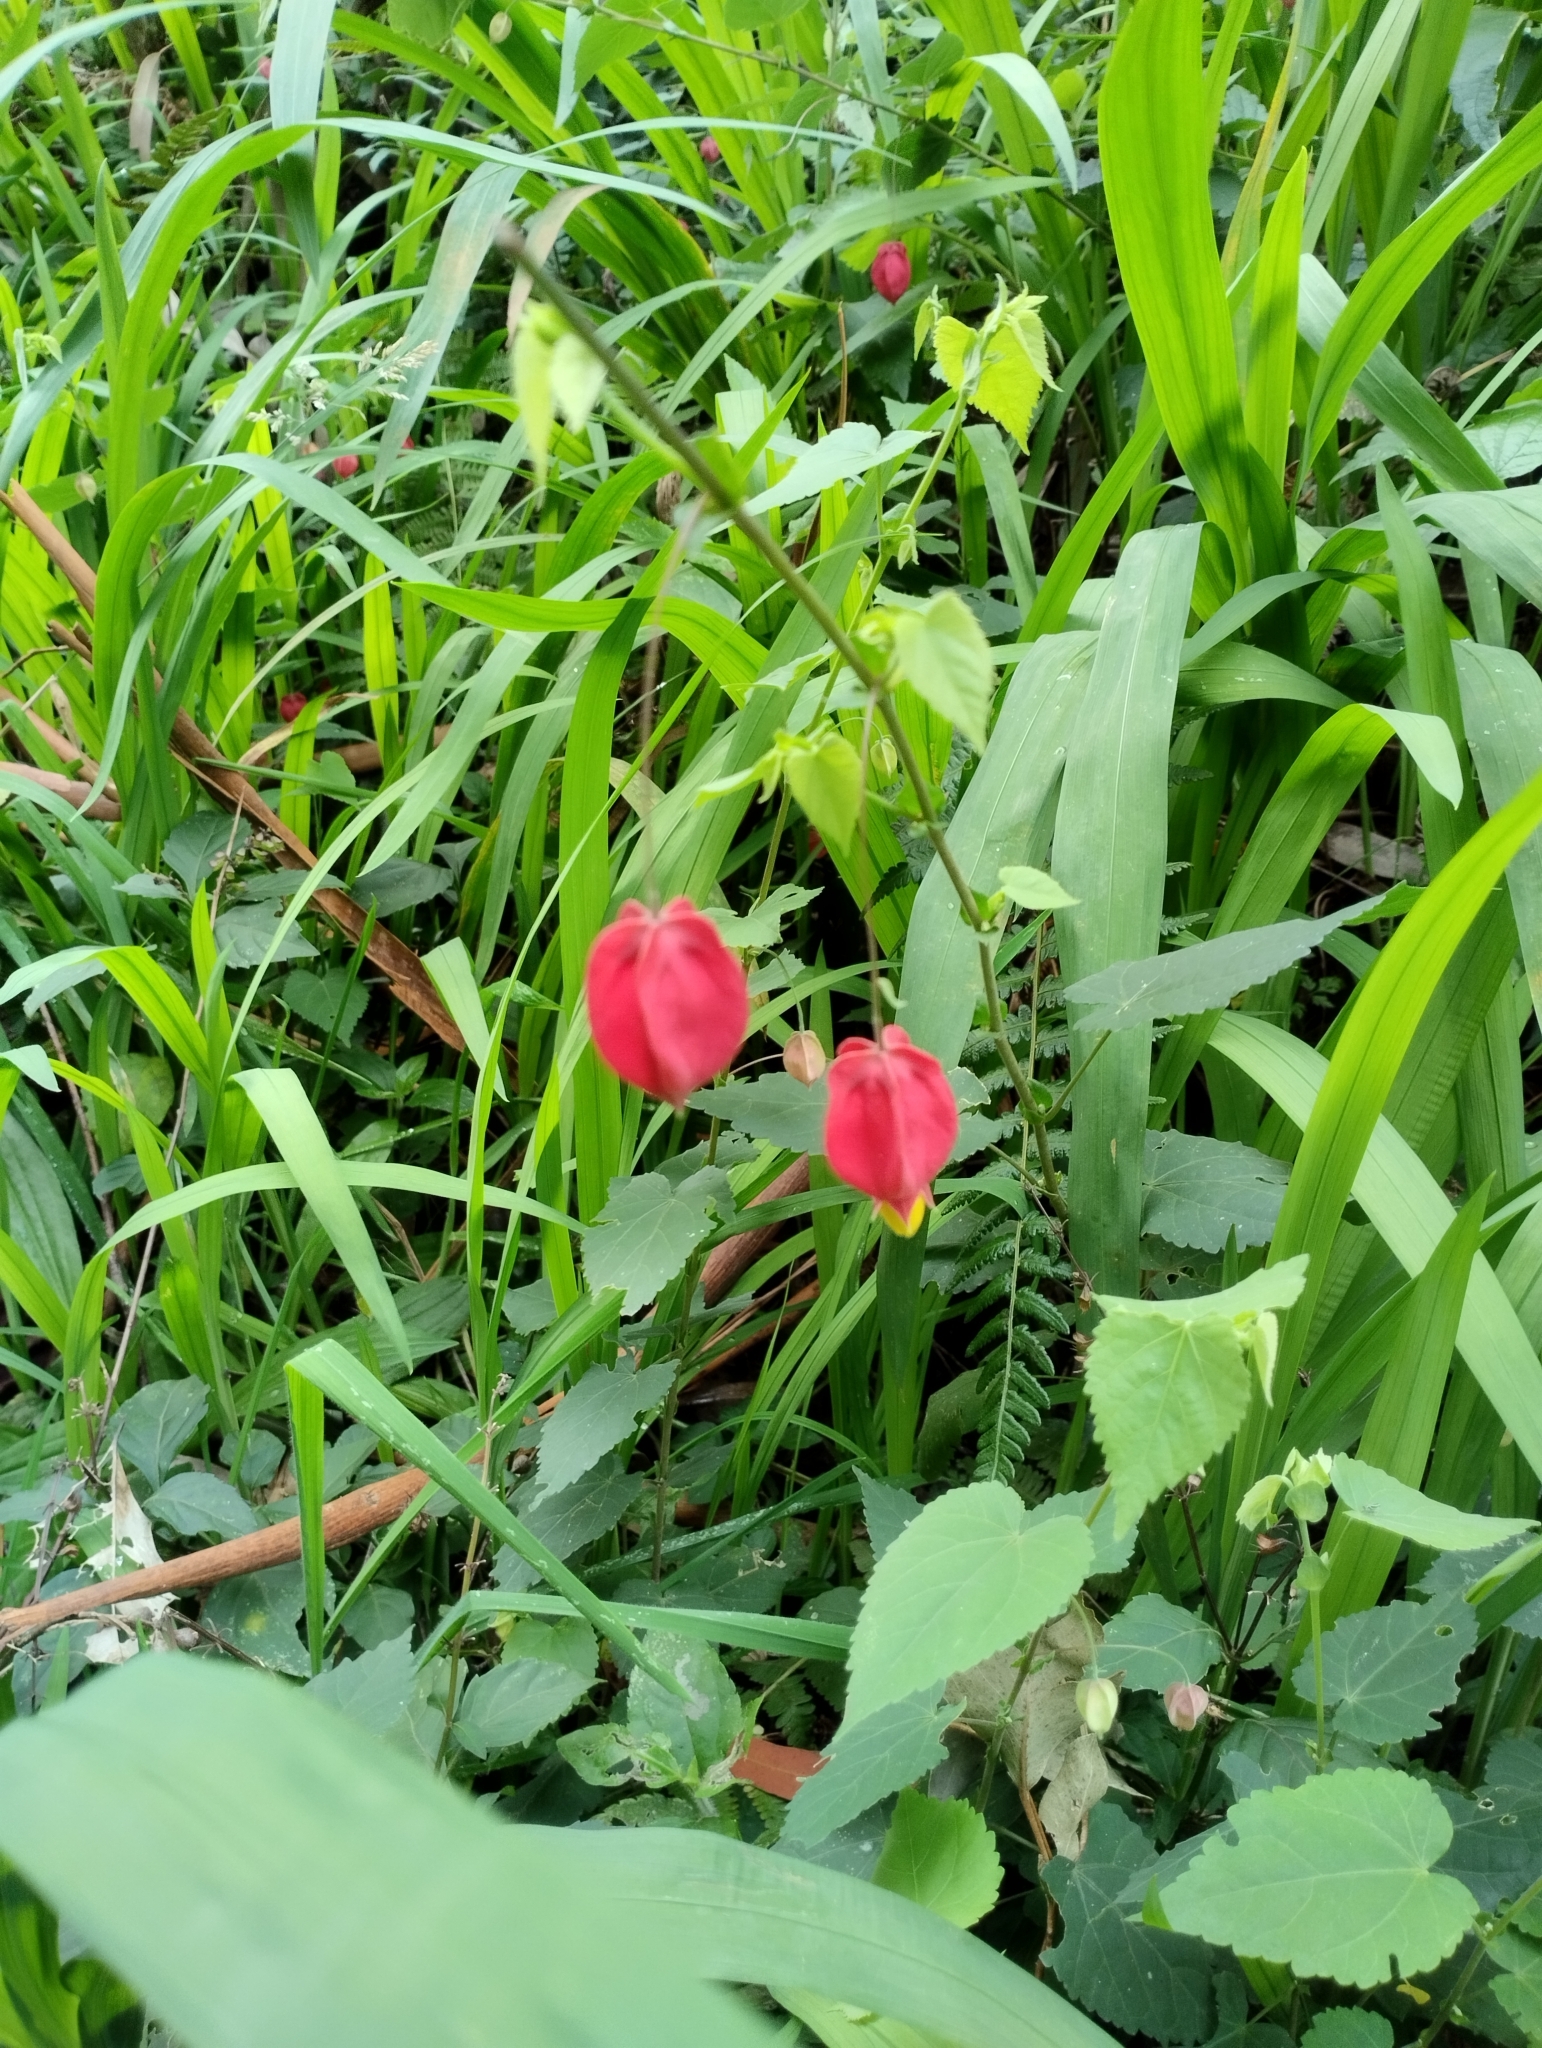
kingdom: Plantae
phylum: Tracheophyta
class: Magnoliopsida
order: Malvales
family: Malvaceae
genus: Callianthe
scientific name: Callianthe megapotamica
